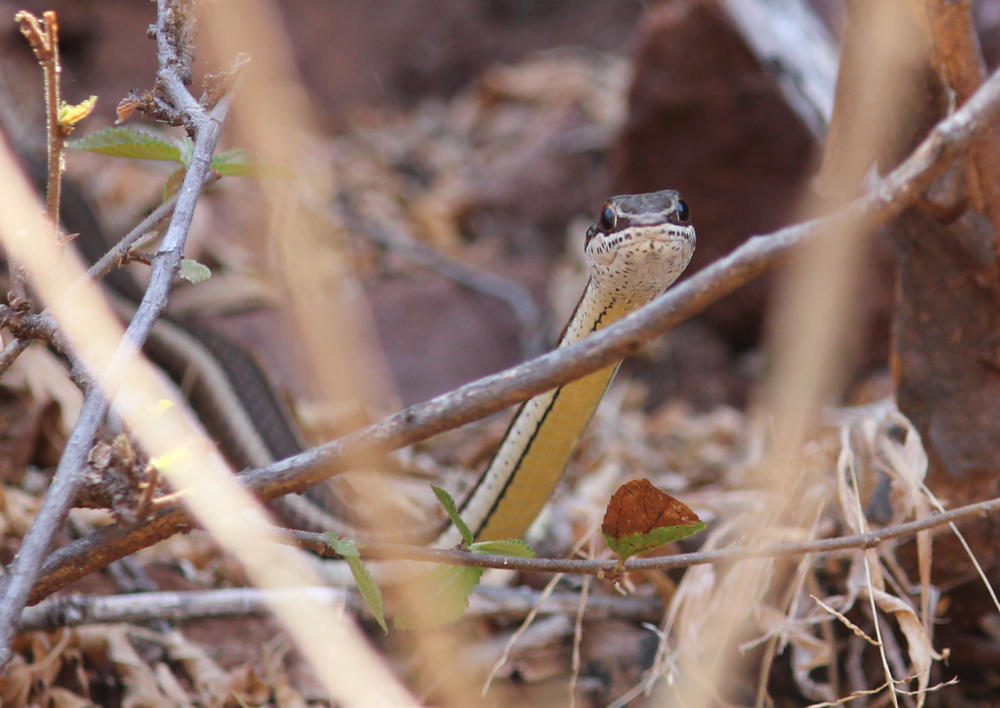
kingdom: Animalia
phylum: Chordata
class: Squamata
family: Psammophiidae
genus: Psammophis
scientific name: Psammophis subtaeniatus
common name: Stripe-bellied sand snake
